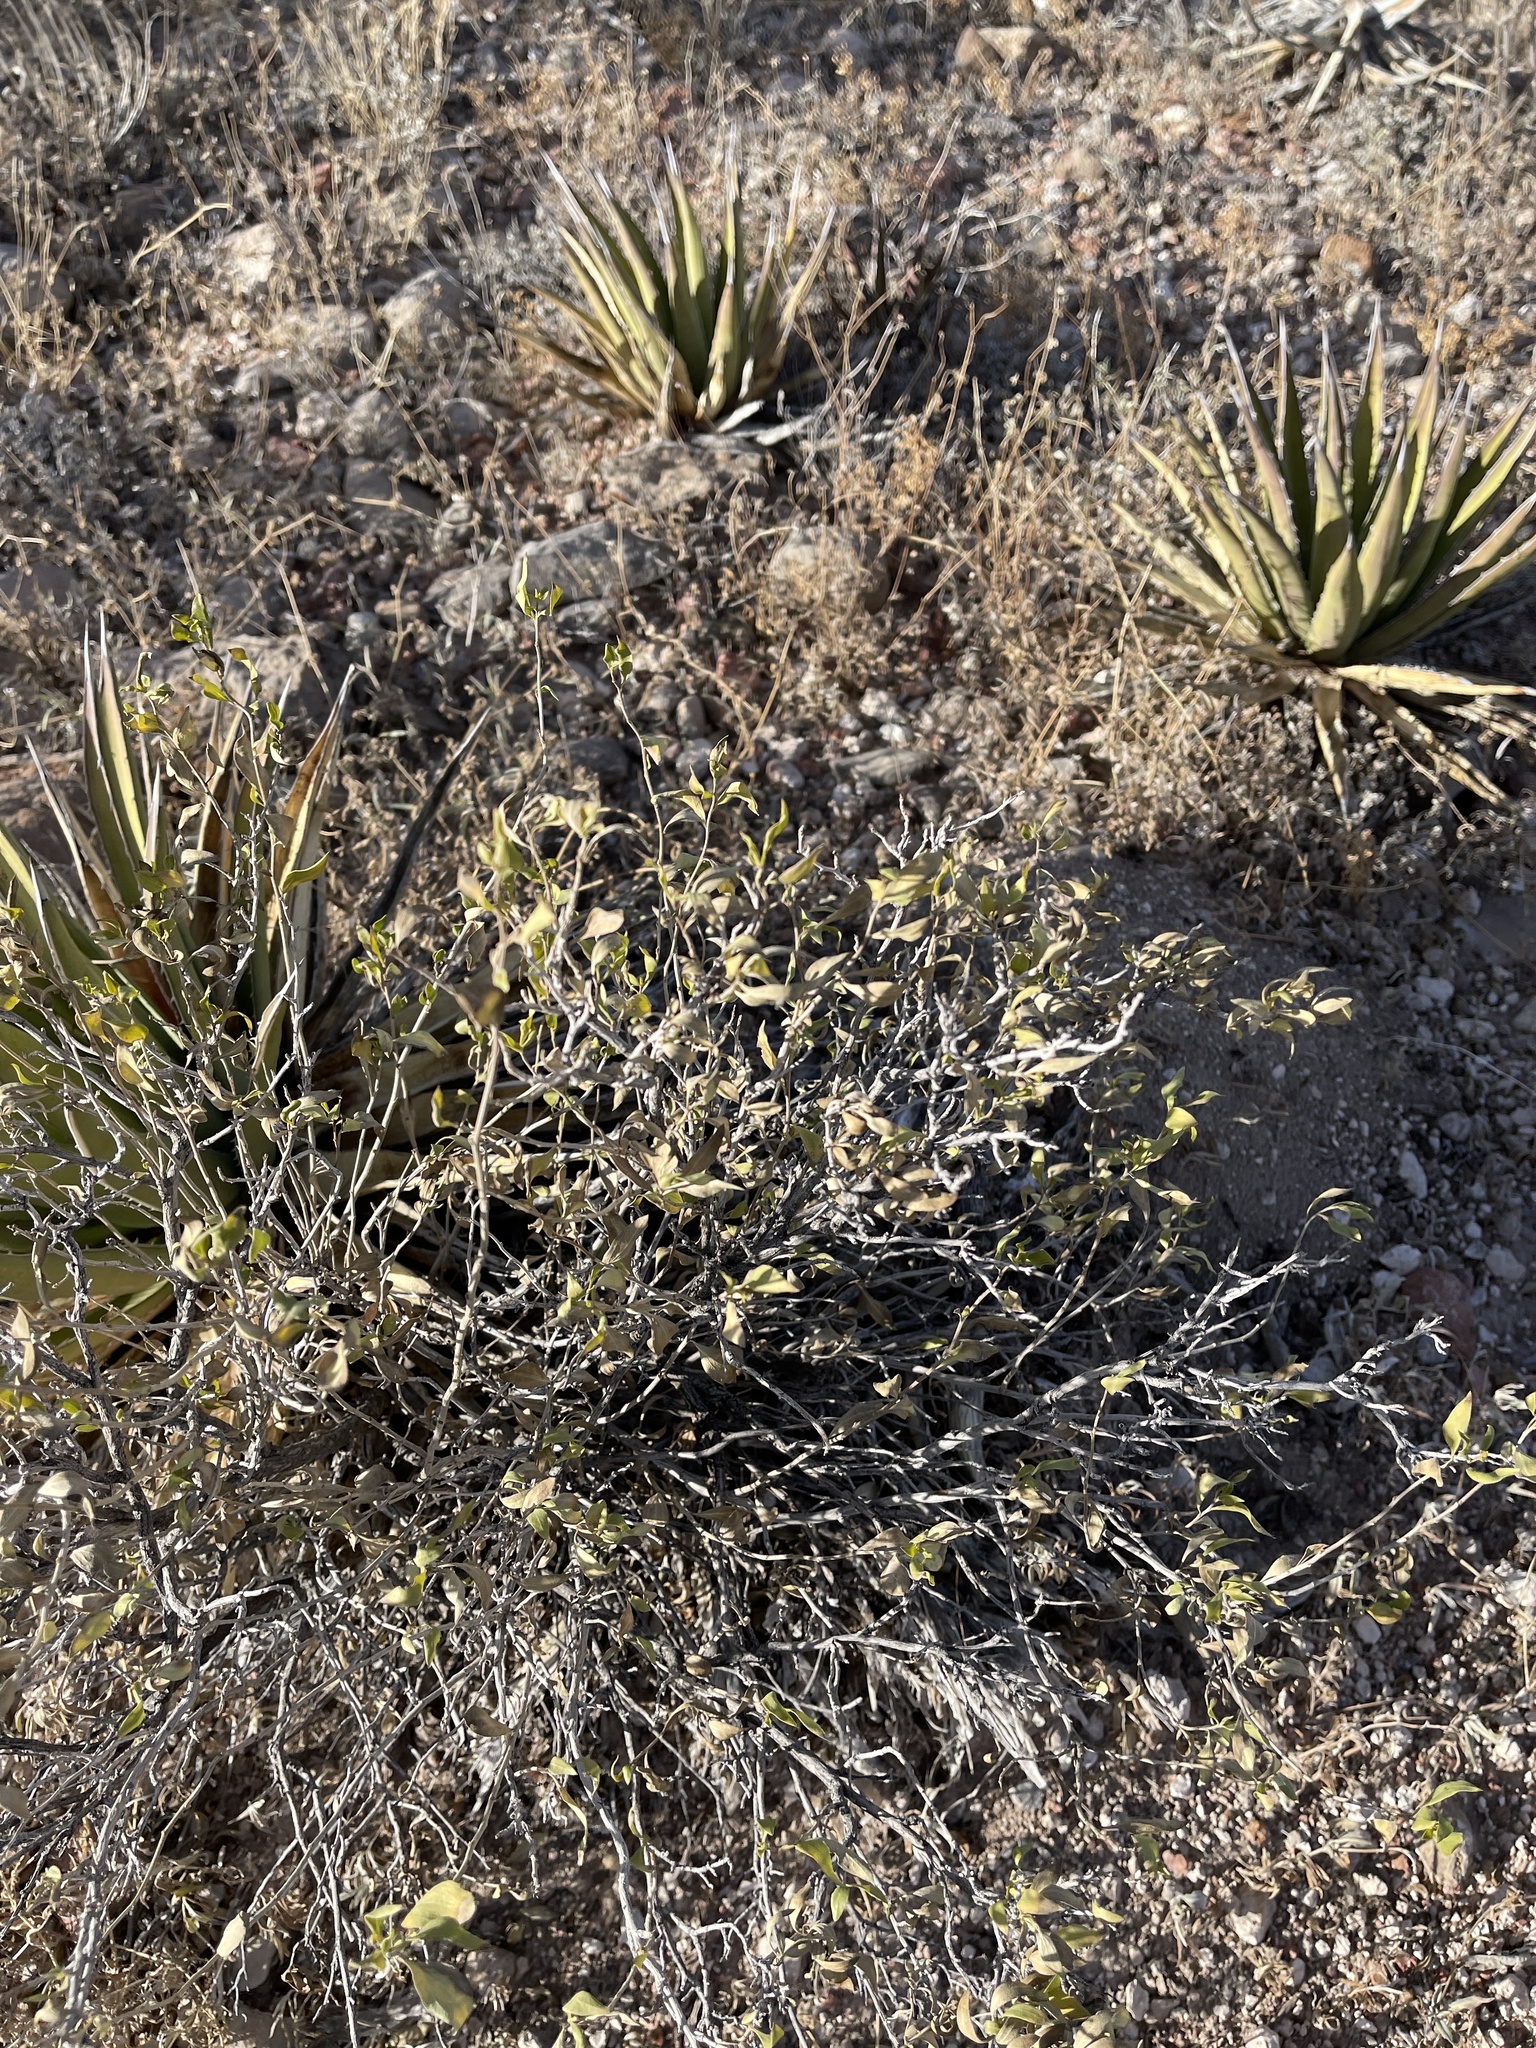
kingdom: Plantae
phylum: Tracheophyta
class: Magnoliopsida
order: Asterales
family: Asteraceae
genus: Flourensia
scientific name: Flourensia cernua
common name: Varnishbush
